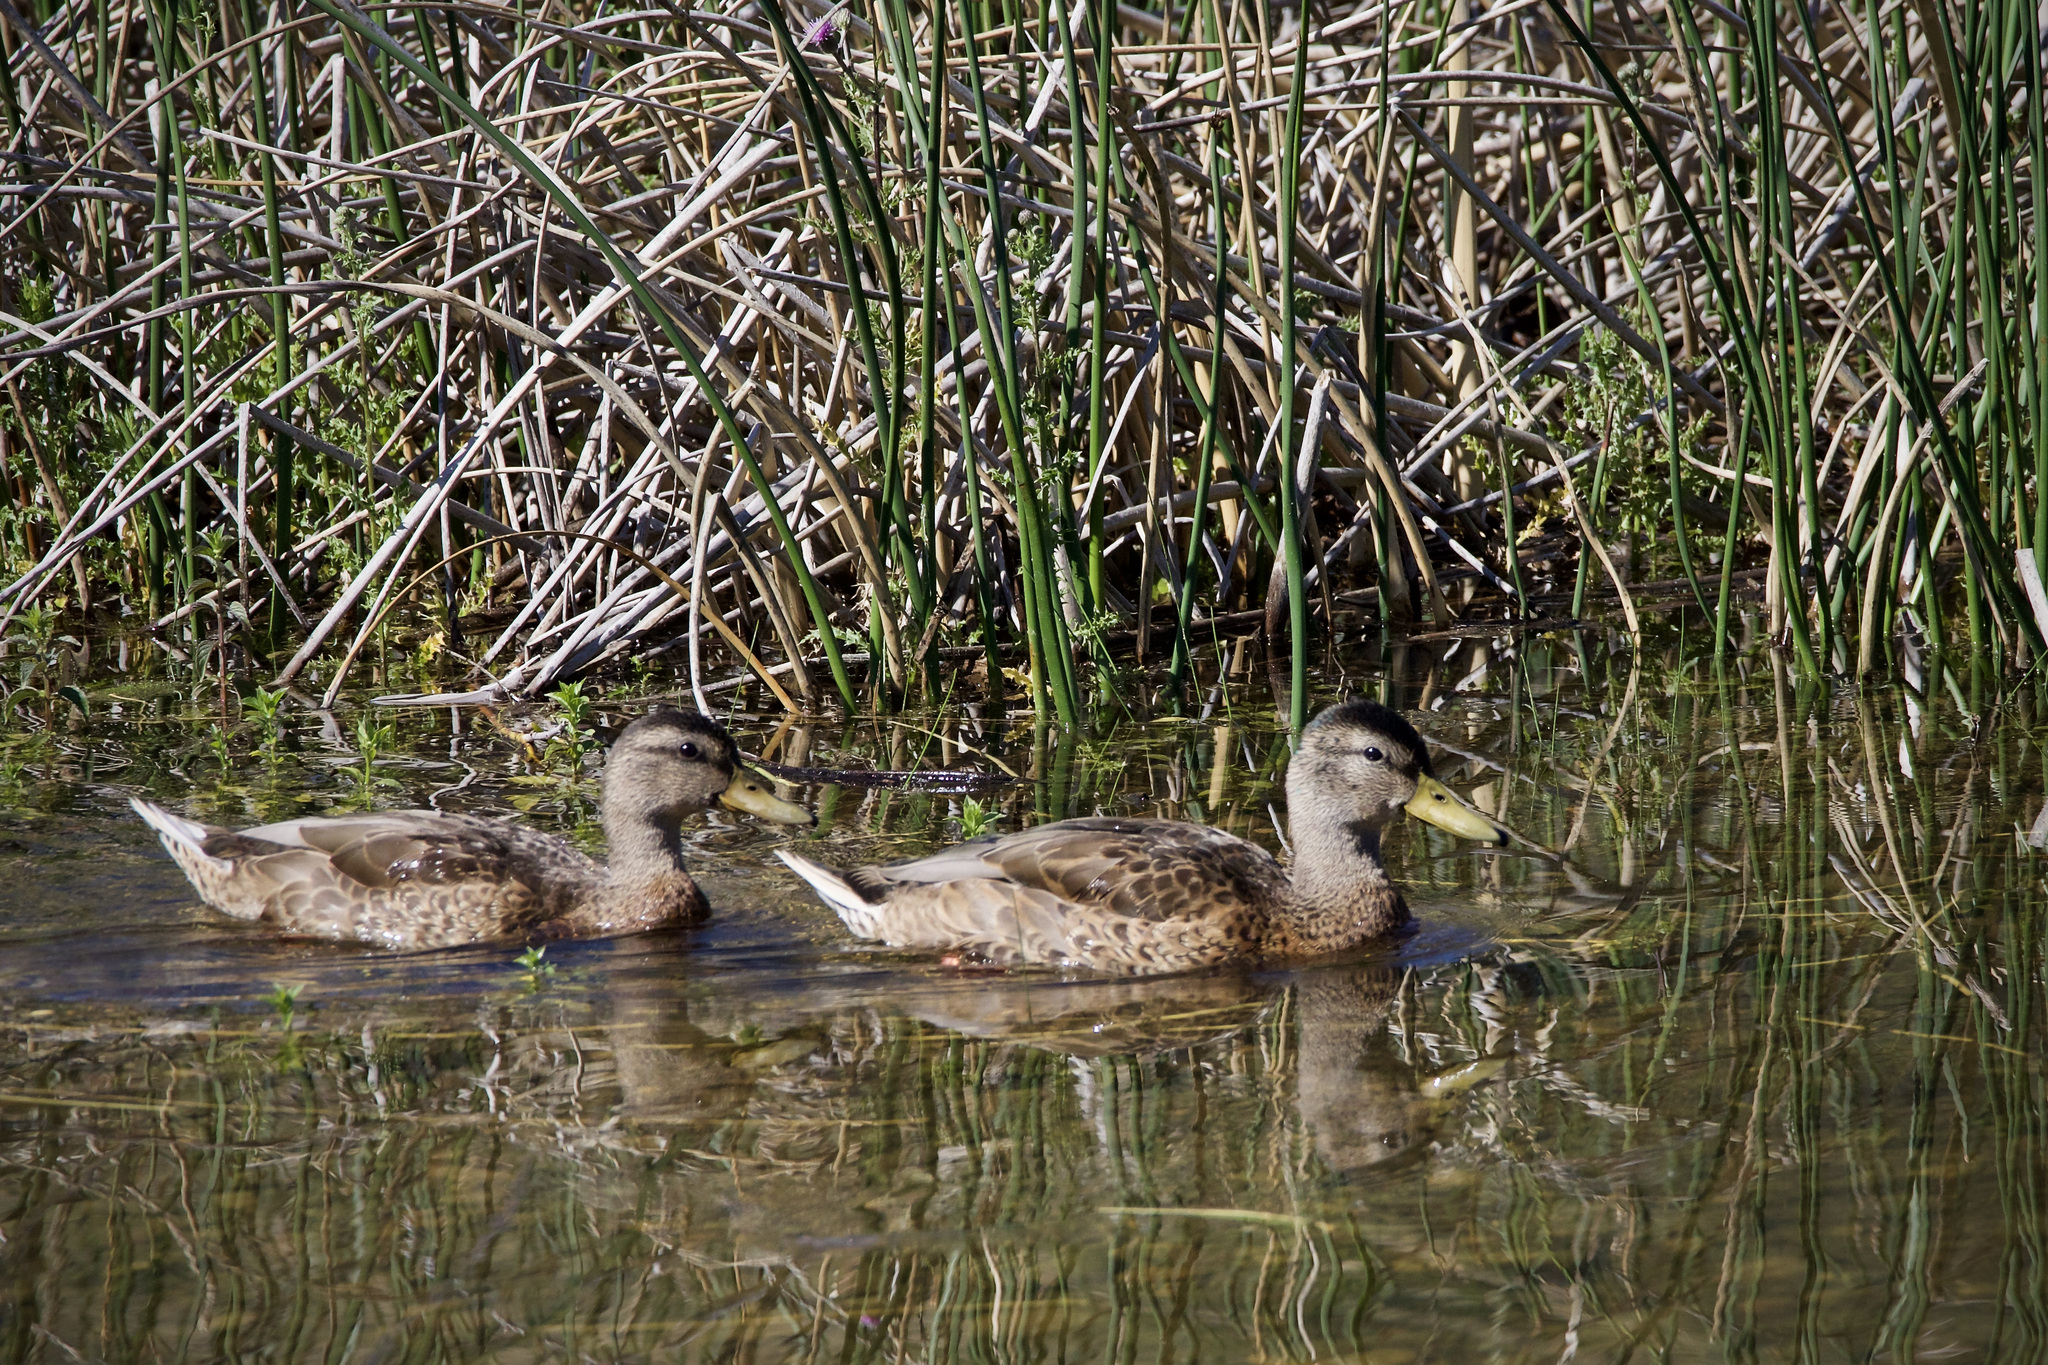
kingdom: Animalia
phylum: Chordata
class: Aves
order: Anseriformes
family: Anatidae
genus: Anas
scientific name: Anas platyrhynchos
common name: Mallard
